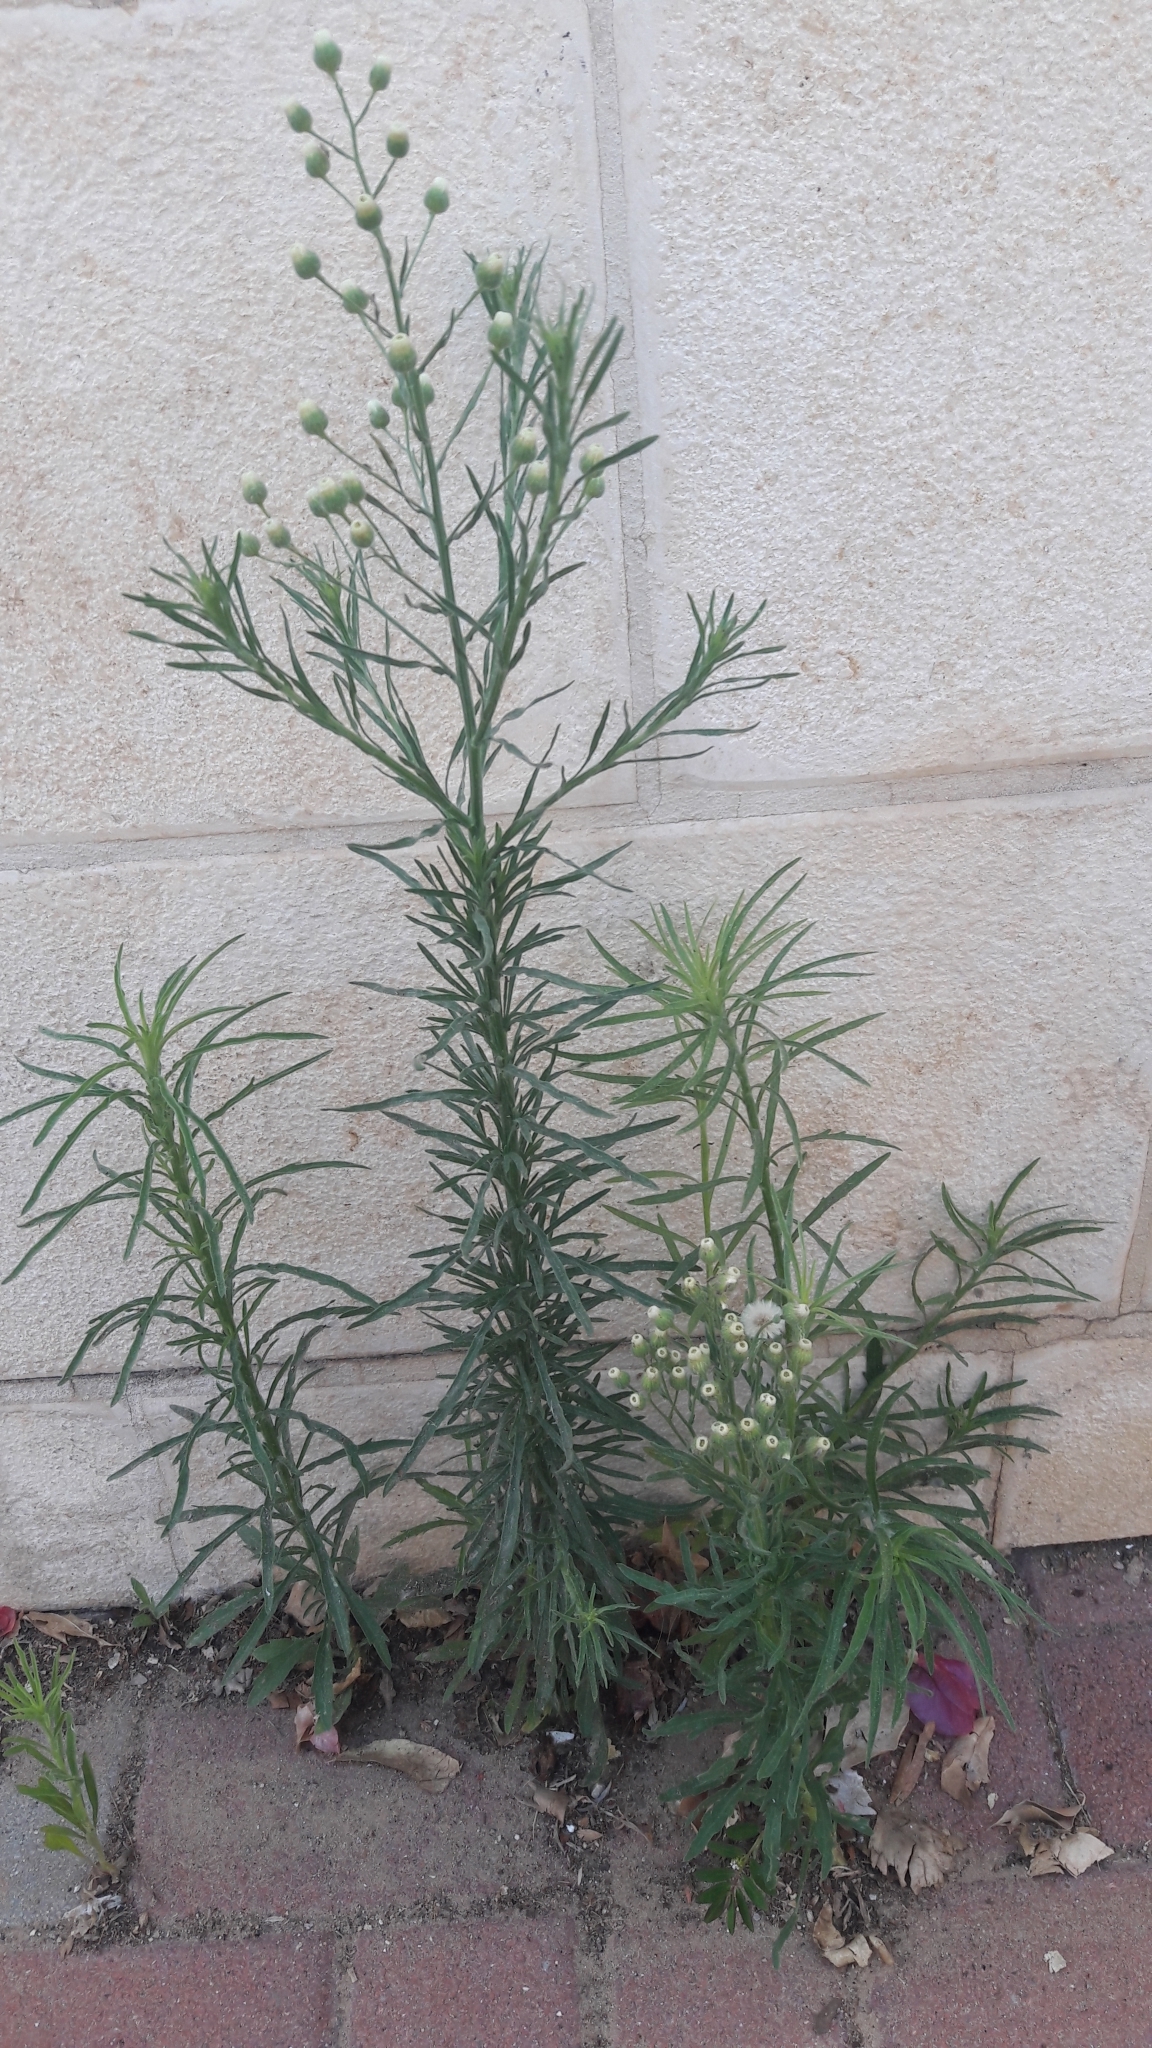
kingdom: Plantae
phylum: Tracheophyta
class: Magnoliopsida
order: Asterales
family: Asteraceae
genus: Erigeron
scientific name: Erigeron canadensis
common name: Canadian fleabane
